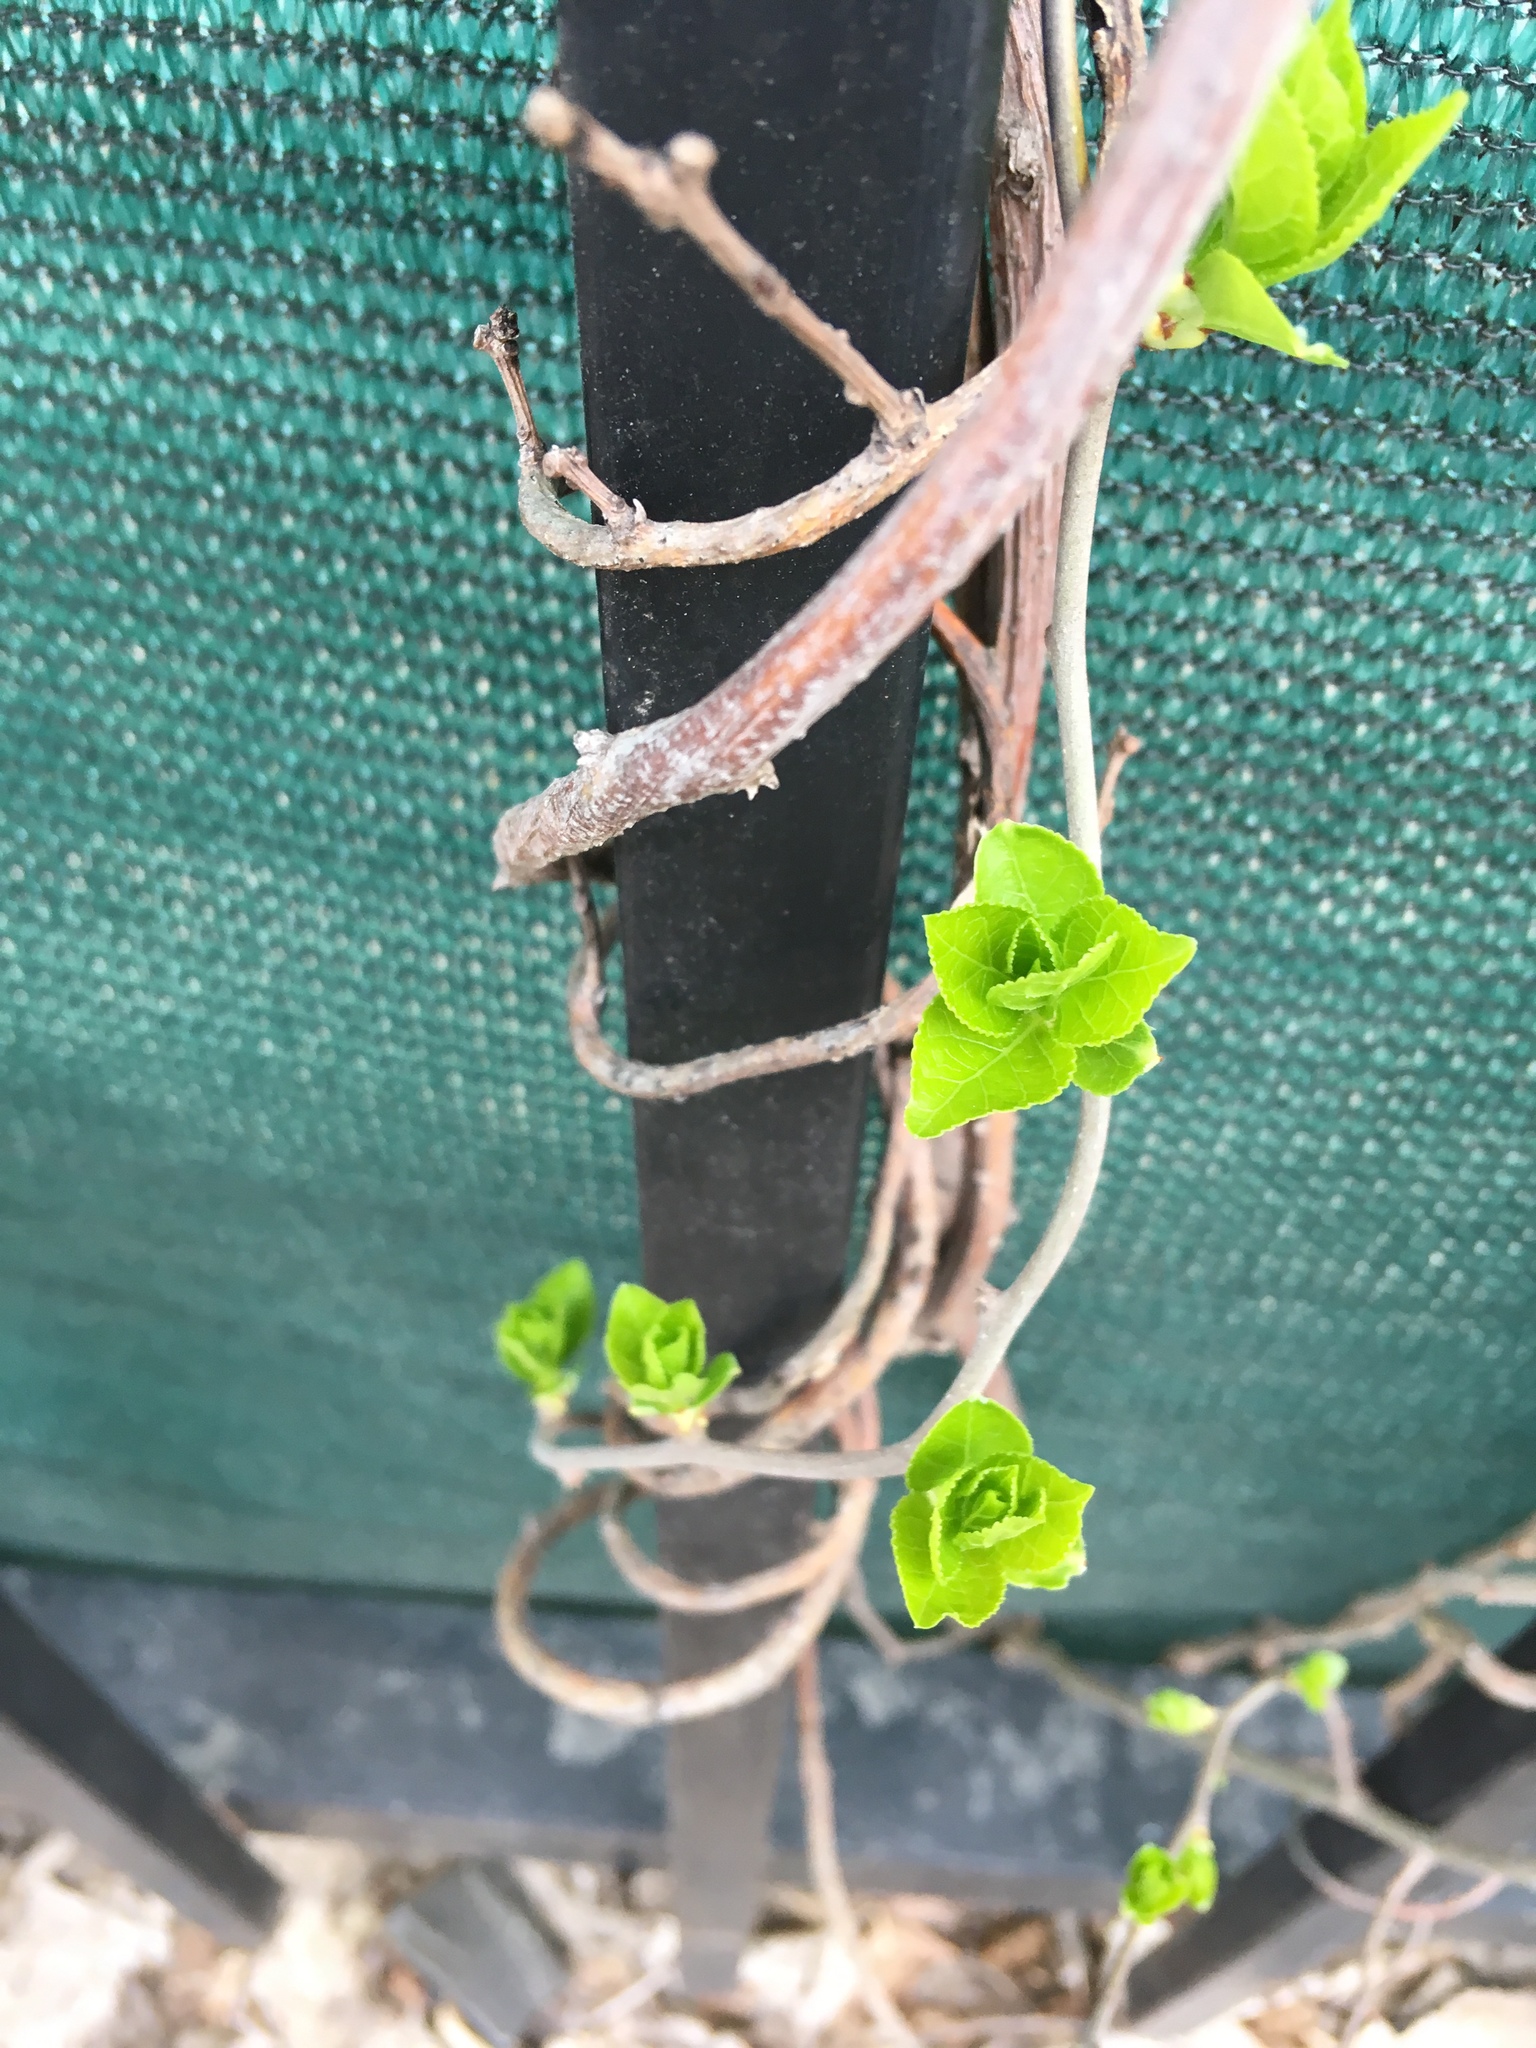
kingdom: Plantae
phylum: Tracheophyta
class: Magnoliopsida
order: Celastrales
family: Celastraceae
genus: Celastrus
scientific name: Celastrus orbiculatus
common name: Oriental bittersweet
